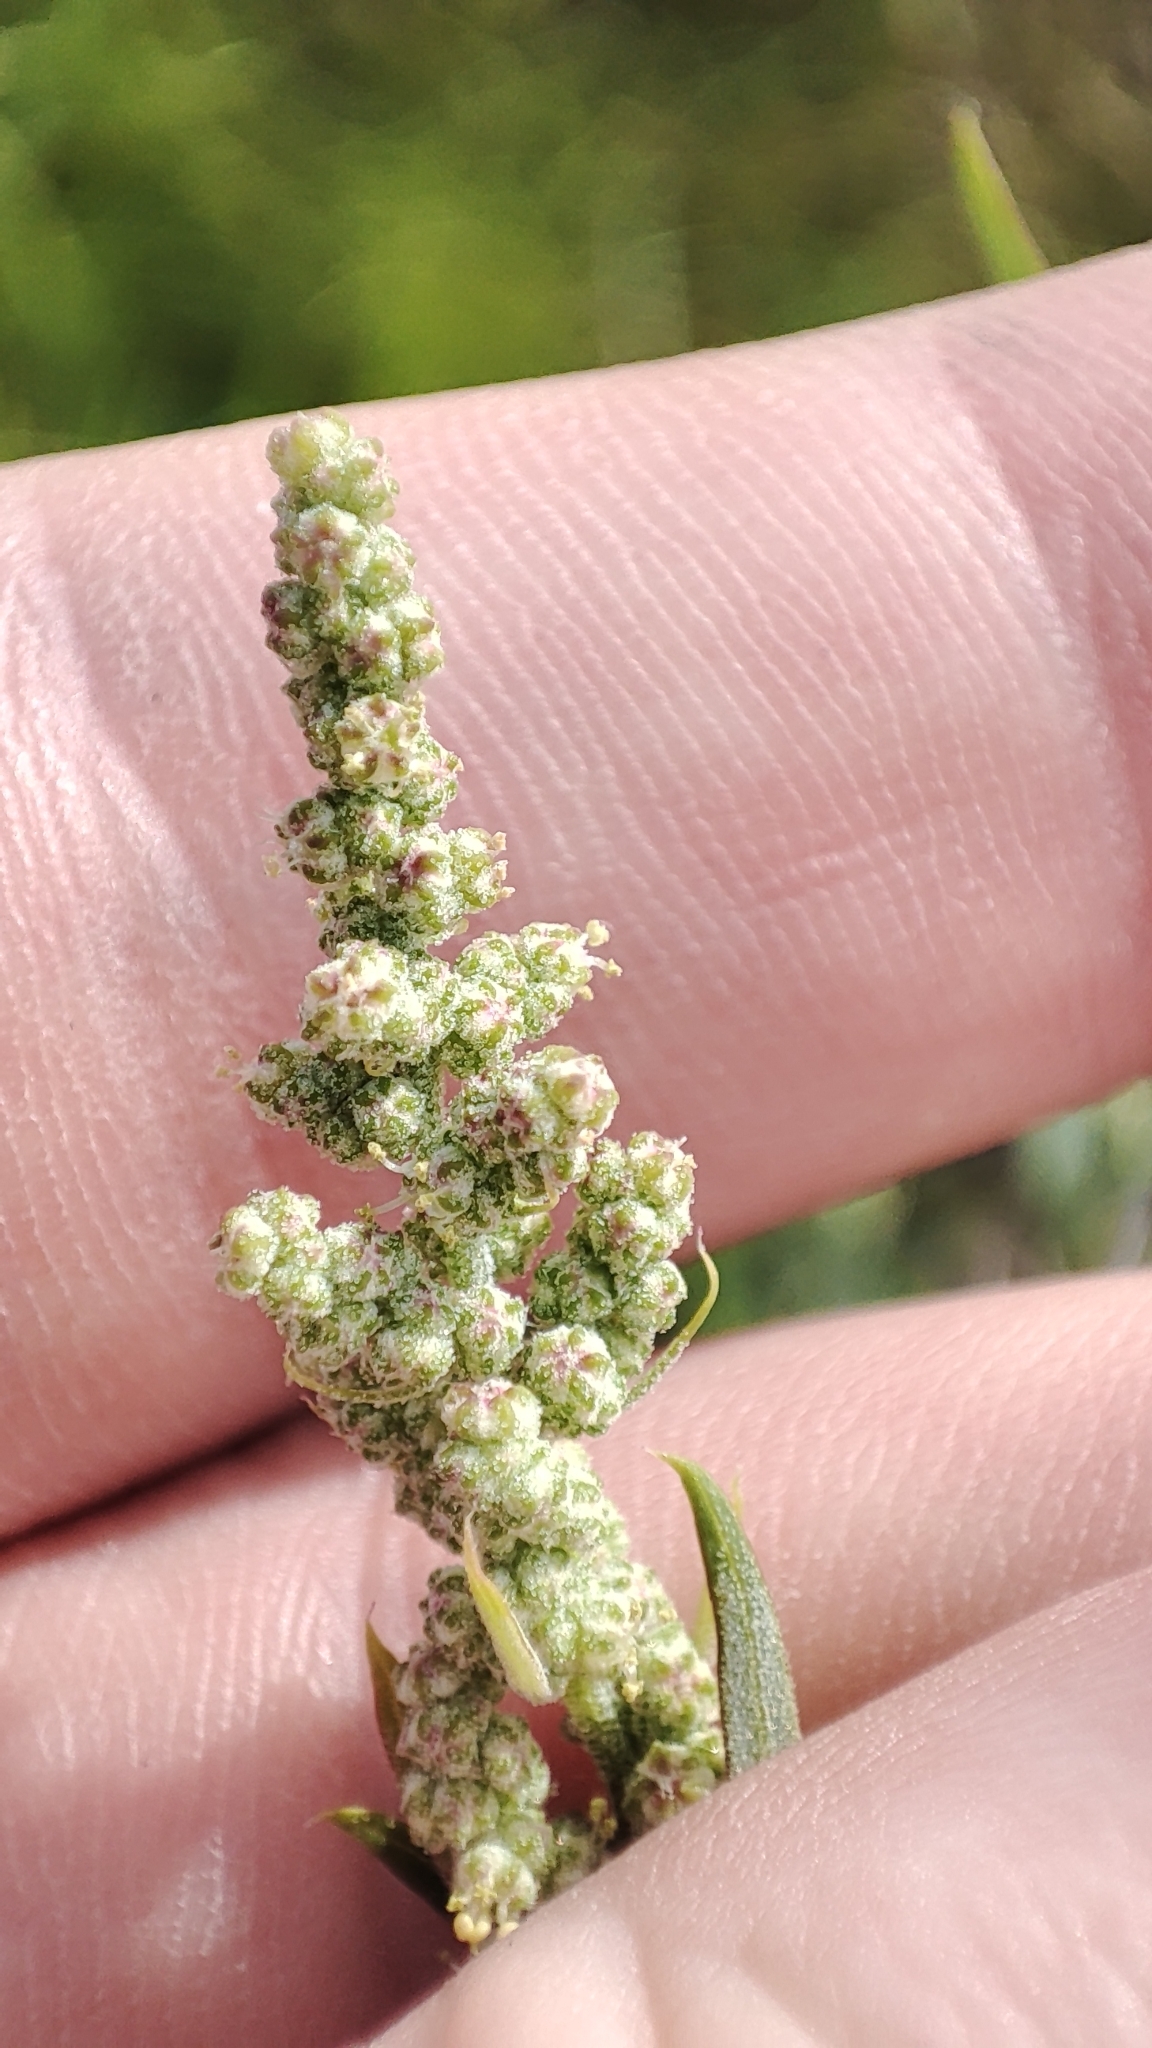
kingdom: Plantae
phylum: Tracheophyta
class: Magnoliopsida
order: Caryophyllales
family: Amaranthaceae
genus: Chenopodium
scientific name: Chenopodium album
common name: Fat-hen
